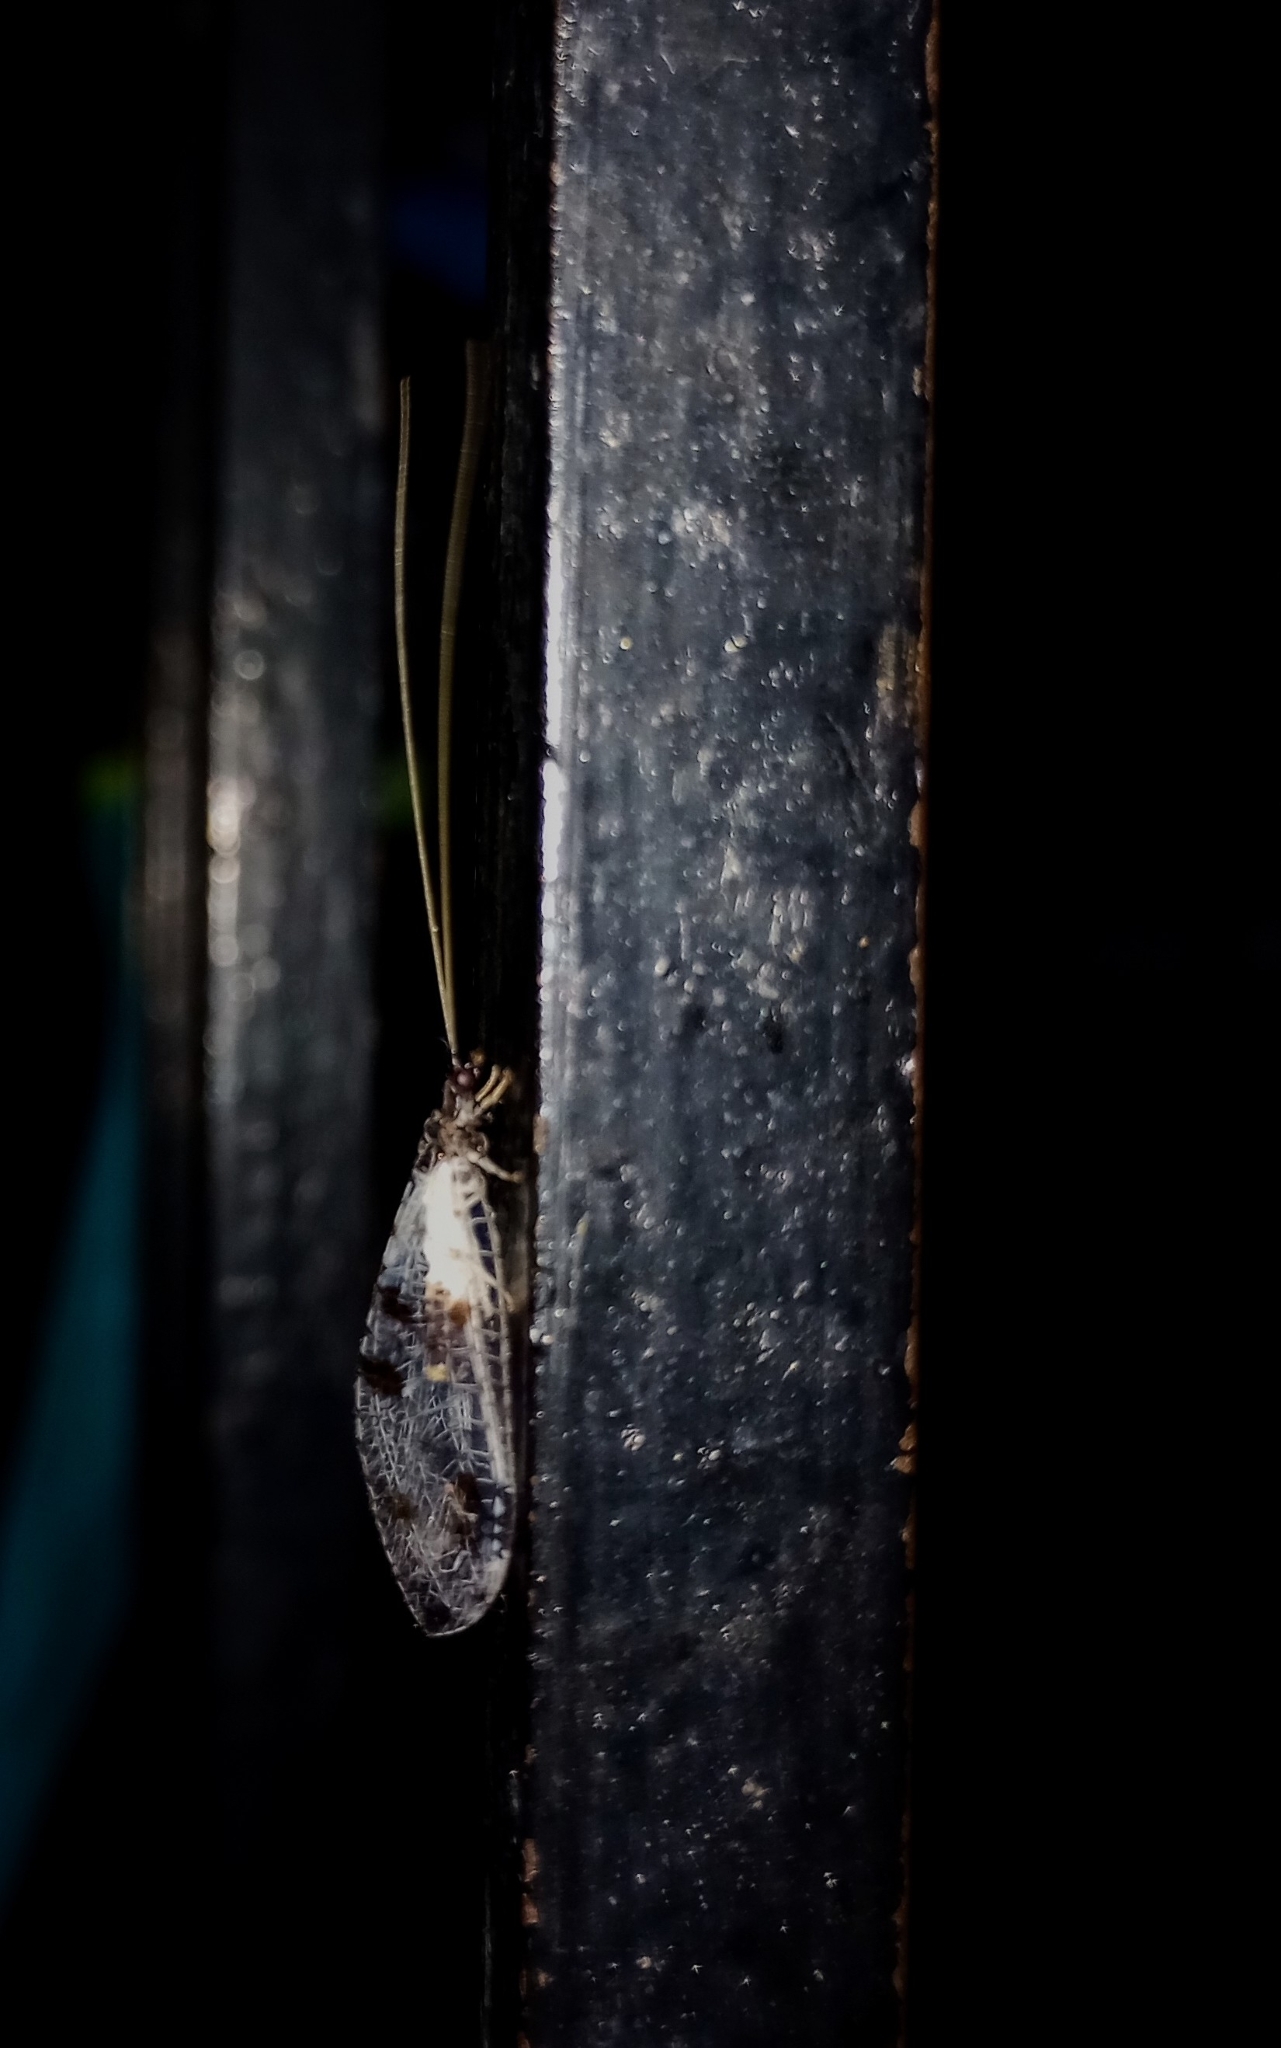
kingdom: Animalia
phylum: Arthropoda
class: Insecta
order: Neuroptera
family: Chrysopidae
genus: Chrysacanthia
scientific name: Chrysacanthia esbeniana
